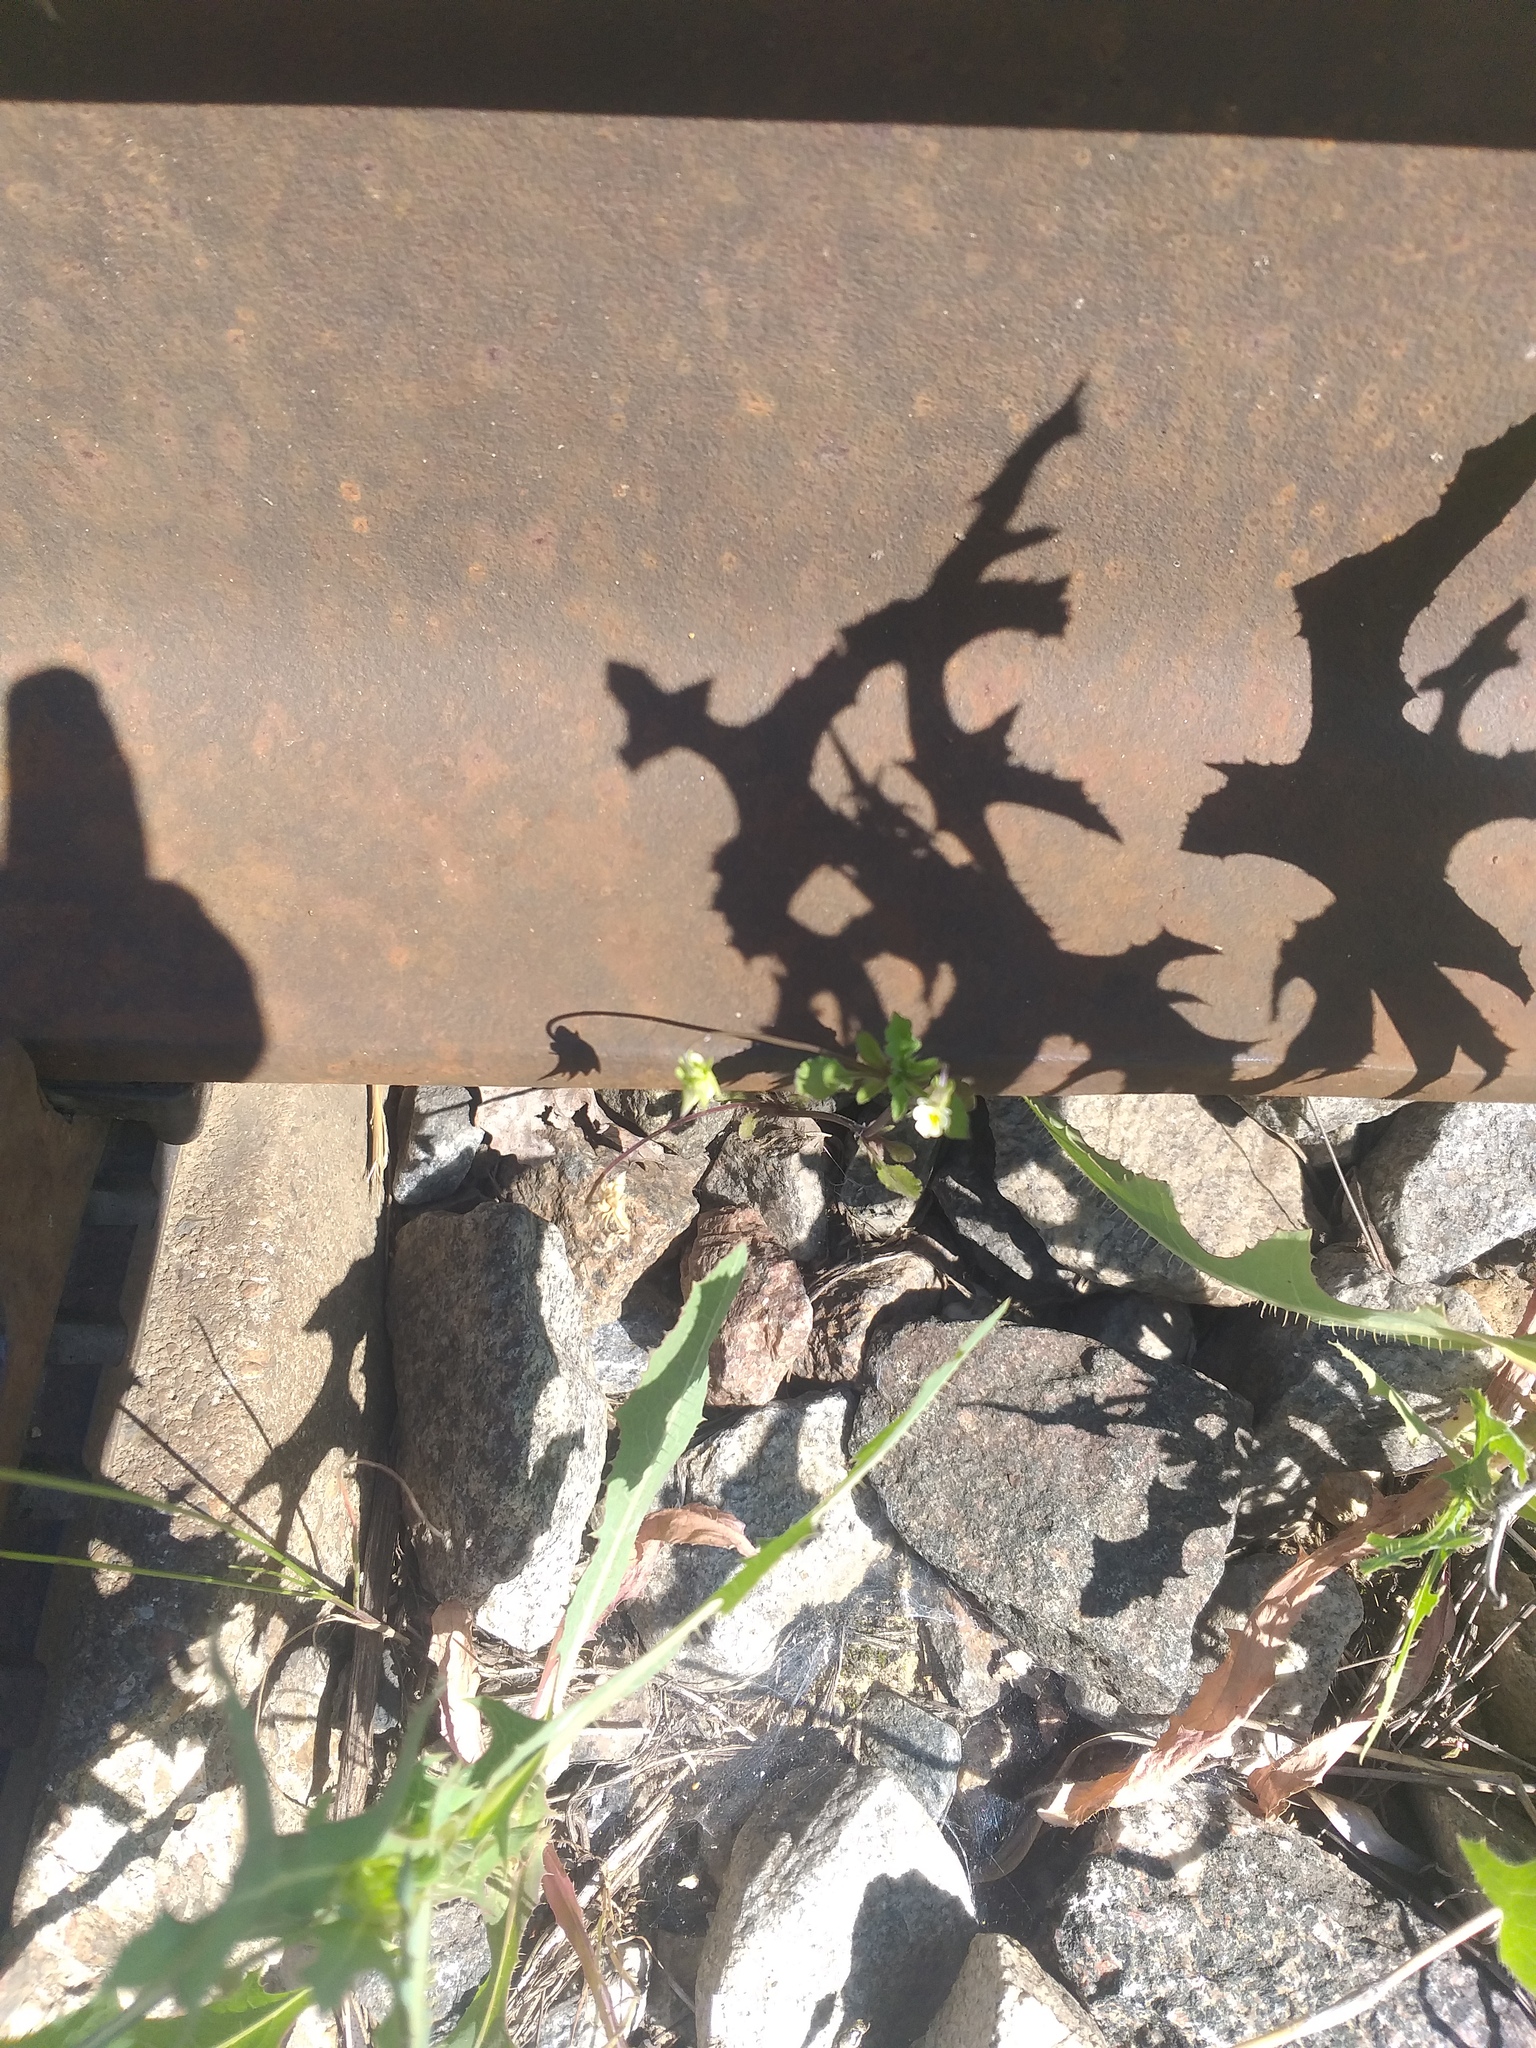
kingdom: Plantae
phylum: Tracheophyta
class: Magnoliopsida
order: Malpighiales
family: Violaceae
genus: Viola
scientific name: Viola arvensis
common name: Field pansy
